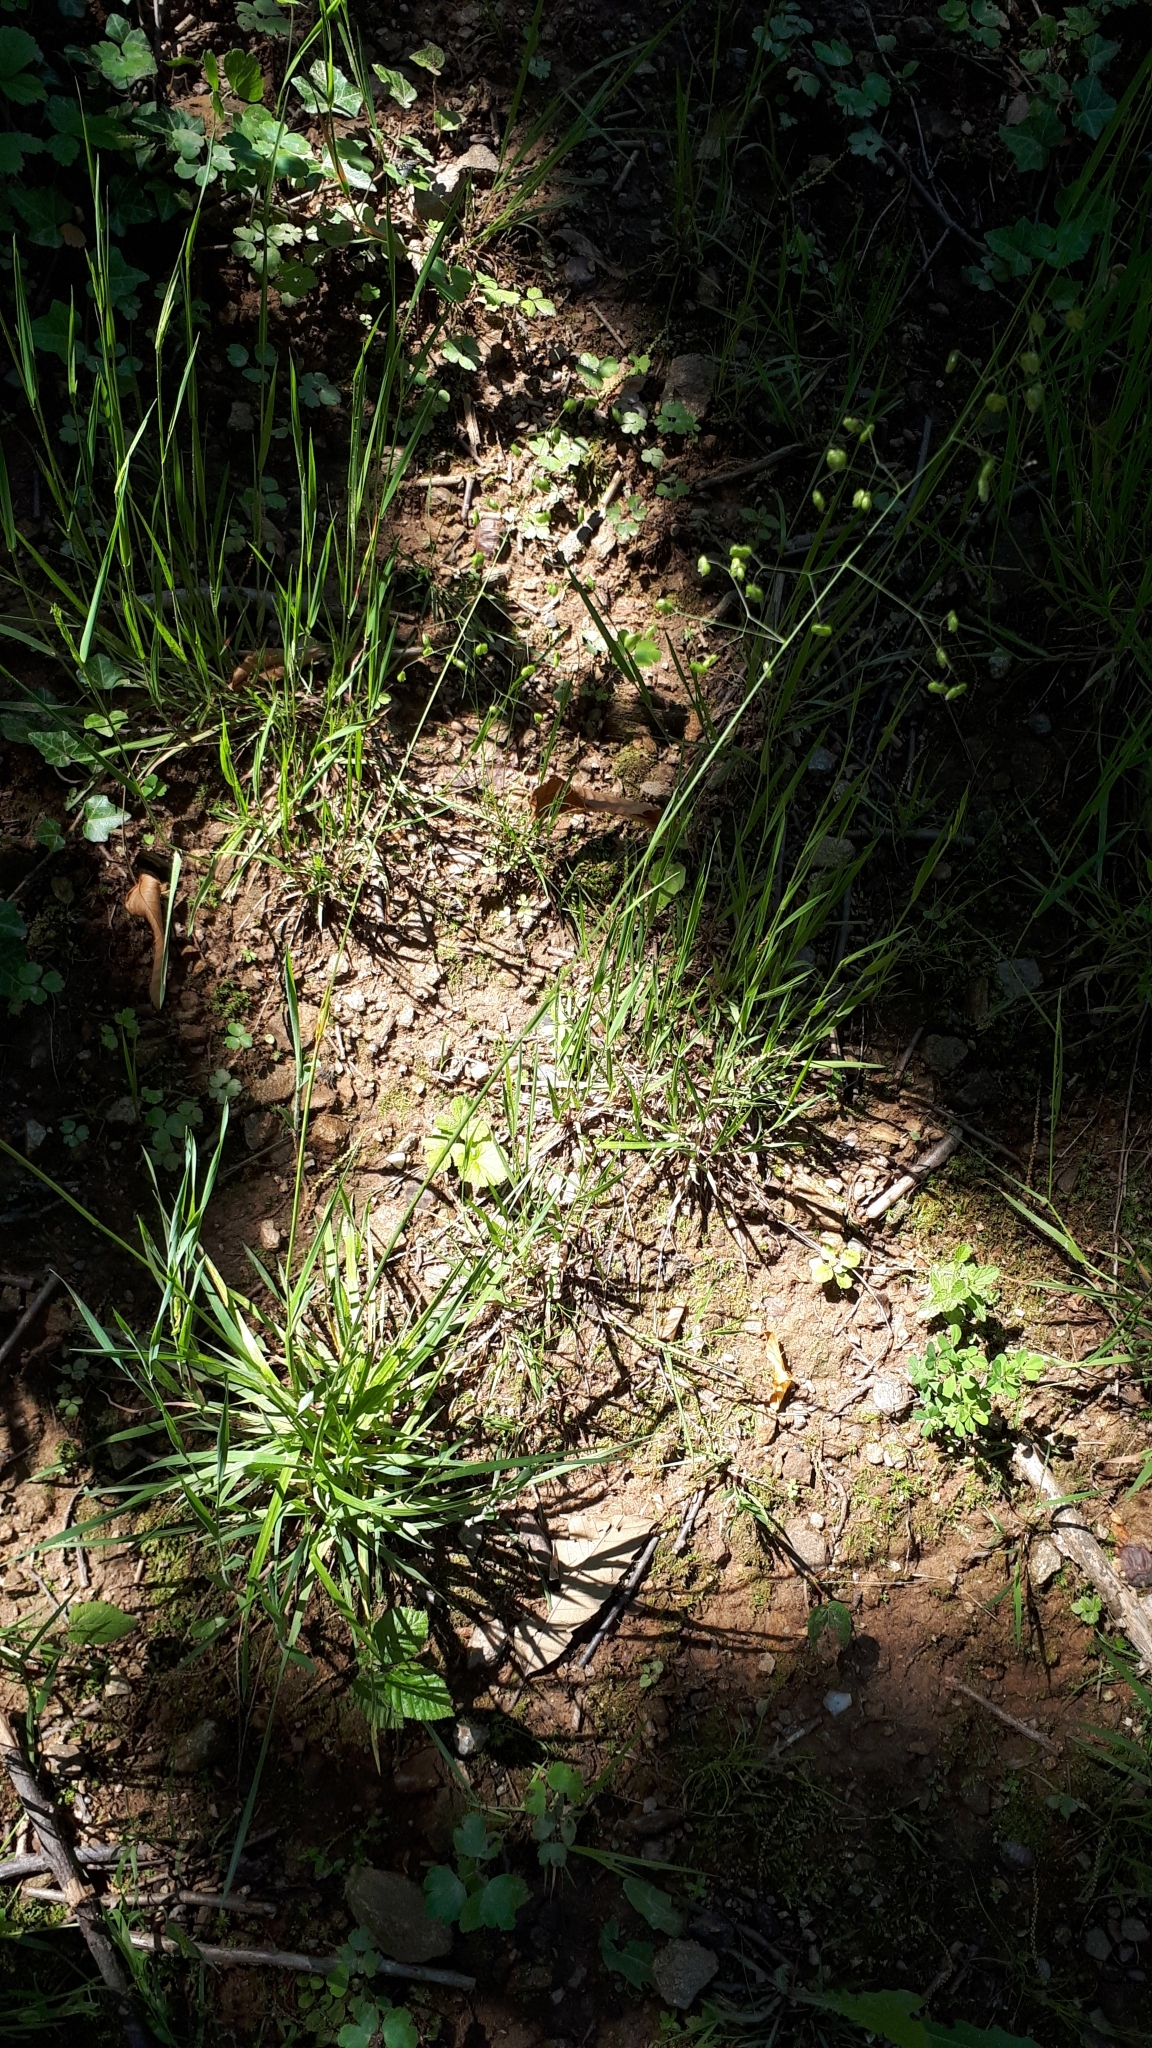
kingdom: Plantae
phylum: Tracheophyta
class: Liliopsida
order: Poales
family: Poaceae
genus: Briza
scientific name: Briza media
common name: Quaking grass
